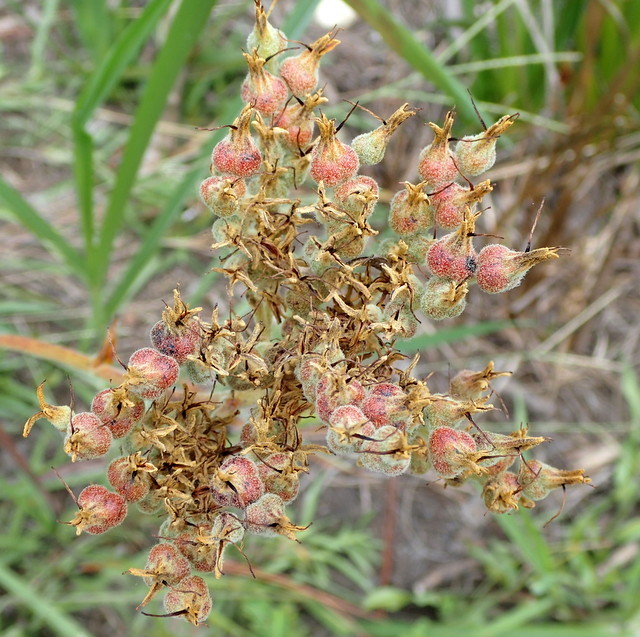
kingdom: Plantae
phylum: Tracheophyta
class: Liliopsida
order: Commelinales
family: Haemodoraceae
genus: Lachnanthes
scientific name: Lachnanthes caroliana
